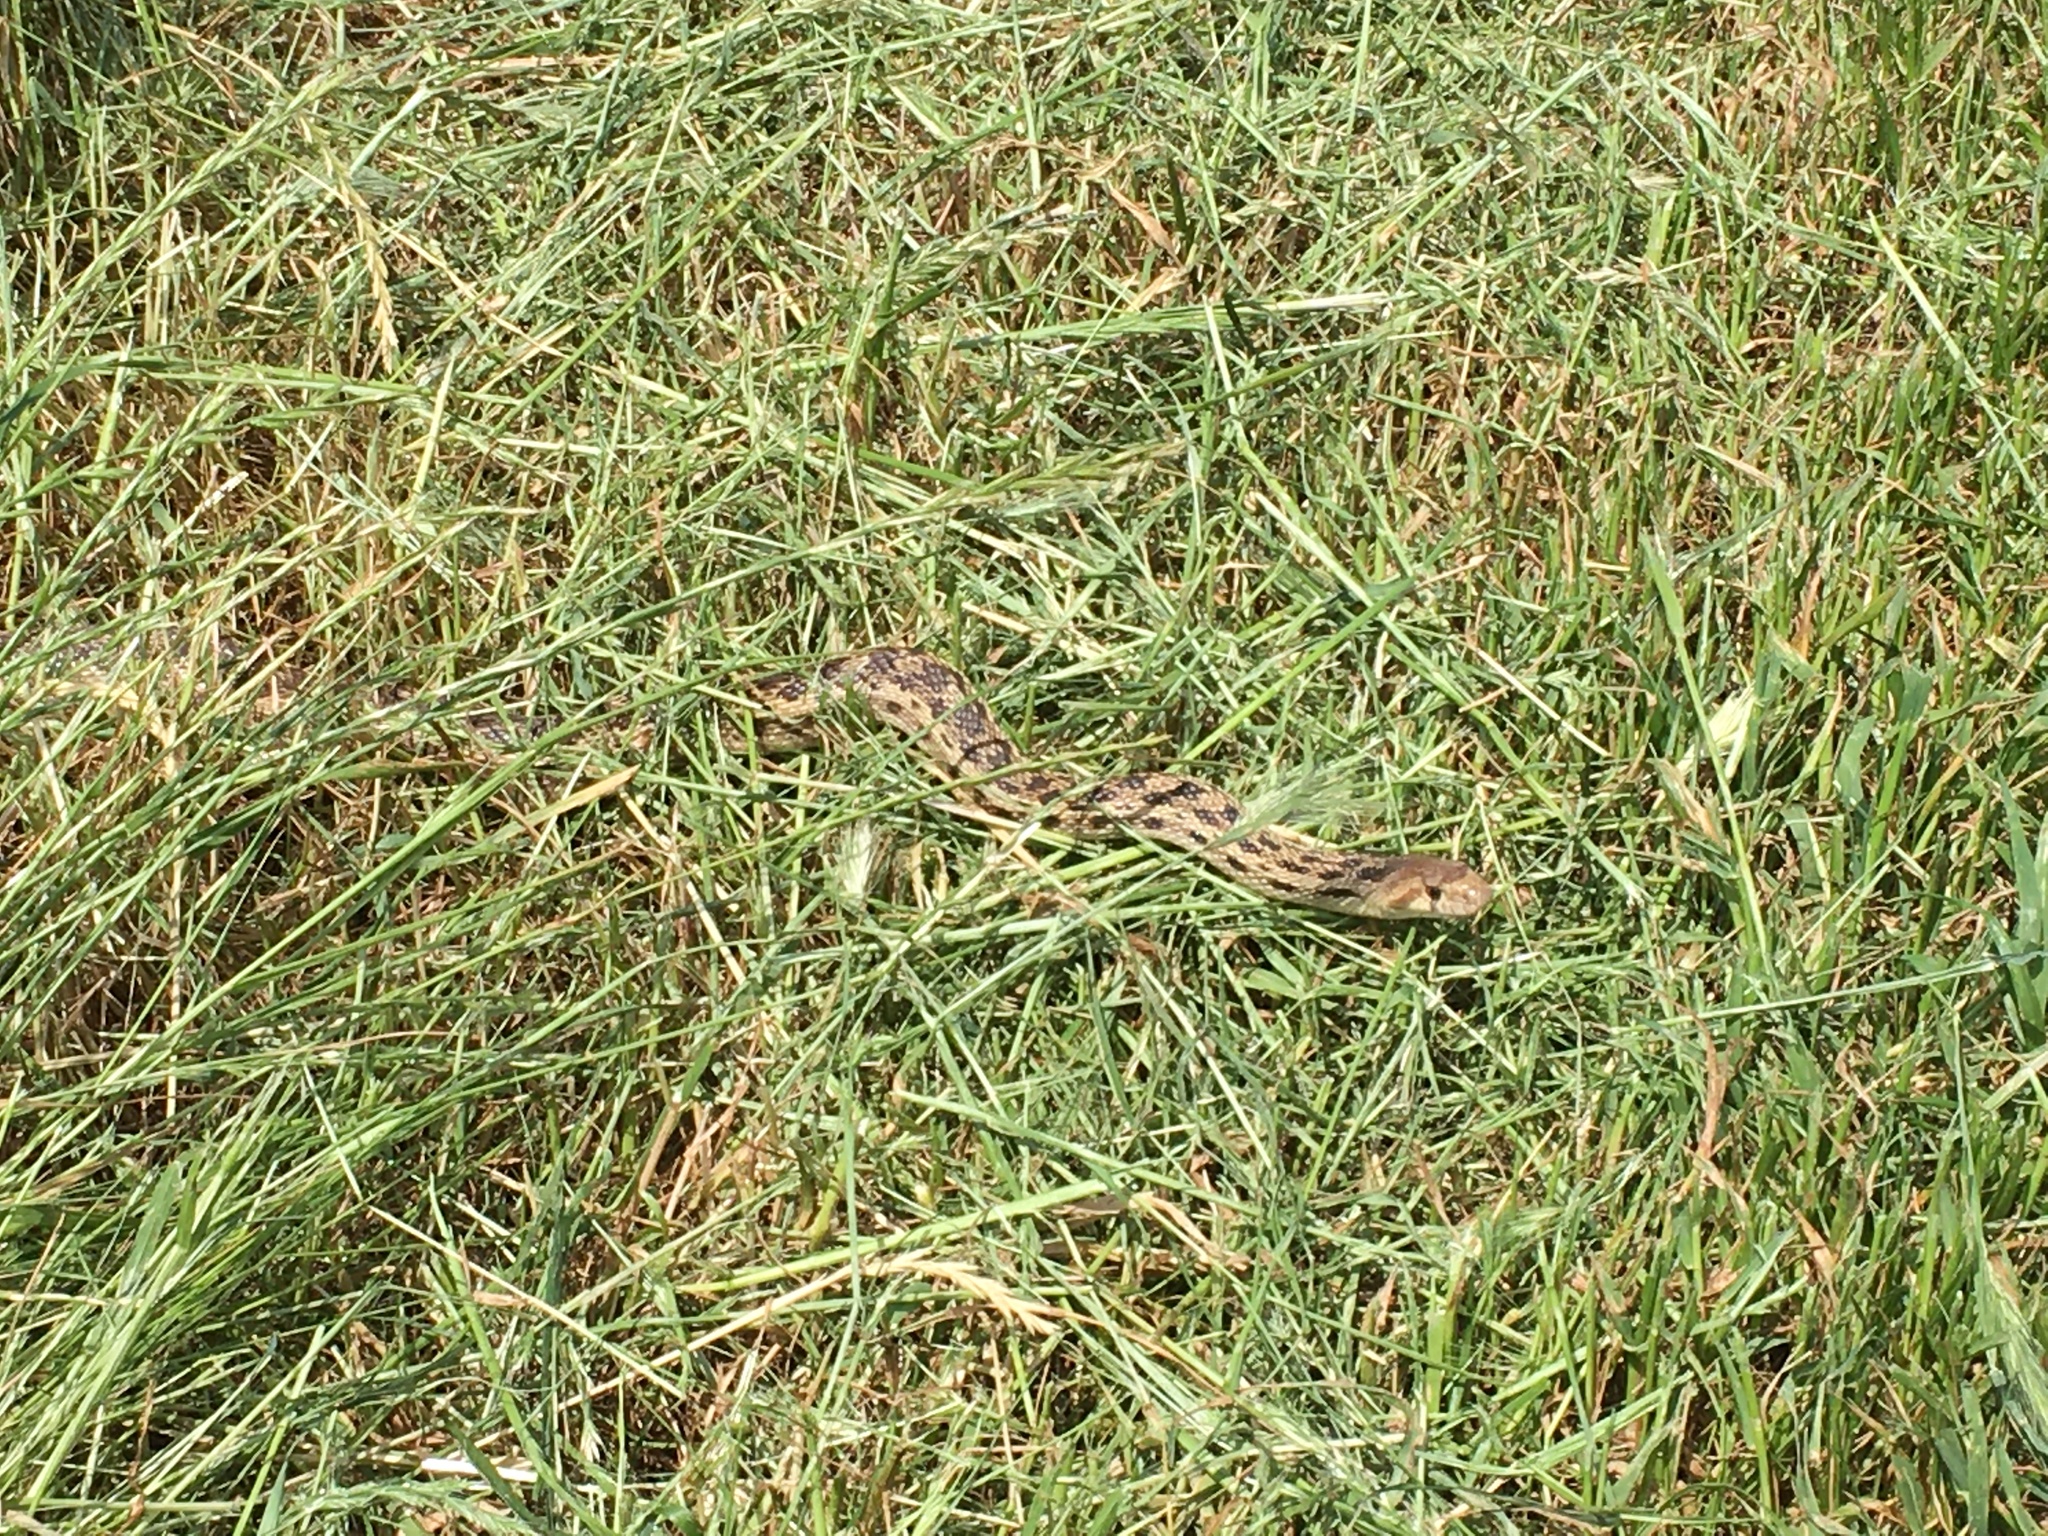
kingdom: Animalia
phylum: Chordata
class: Squamata
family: Colubridae
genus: Pituophis
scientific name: Pituophis catenifer
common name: Gopher snake
